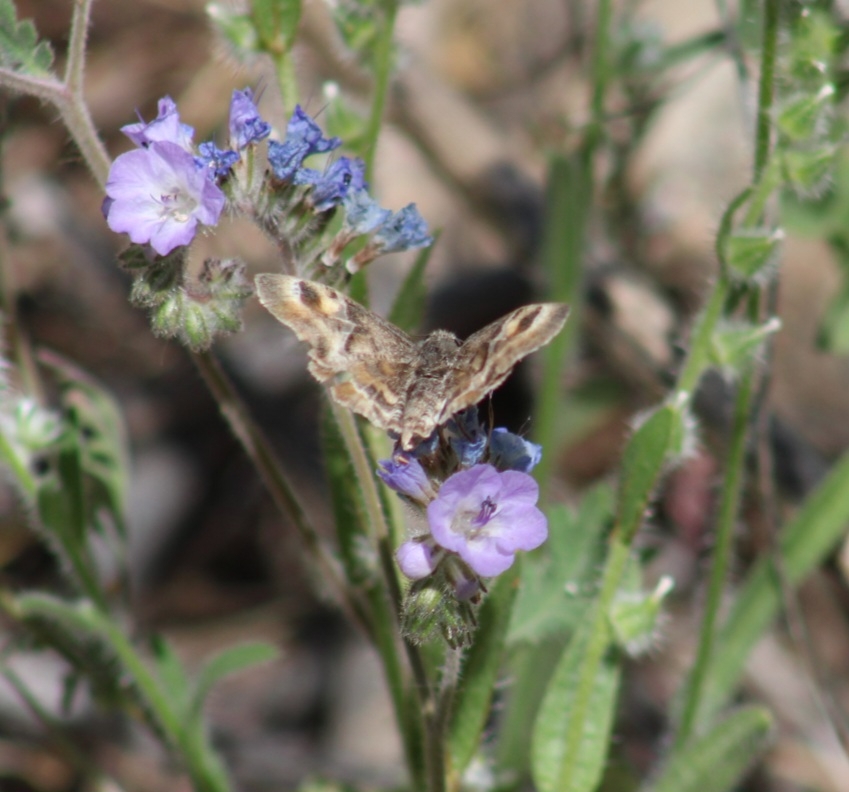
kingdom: Animalia
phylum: Arthropoda
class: Insecta
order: Lepidoptera
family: Hesperiidae
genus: Systasea
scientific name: Systasea zampa
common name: Arizona powdered-skipper
